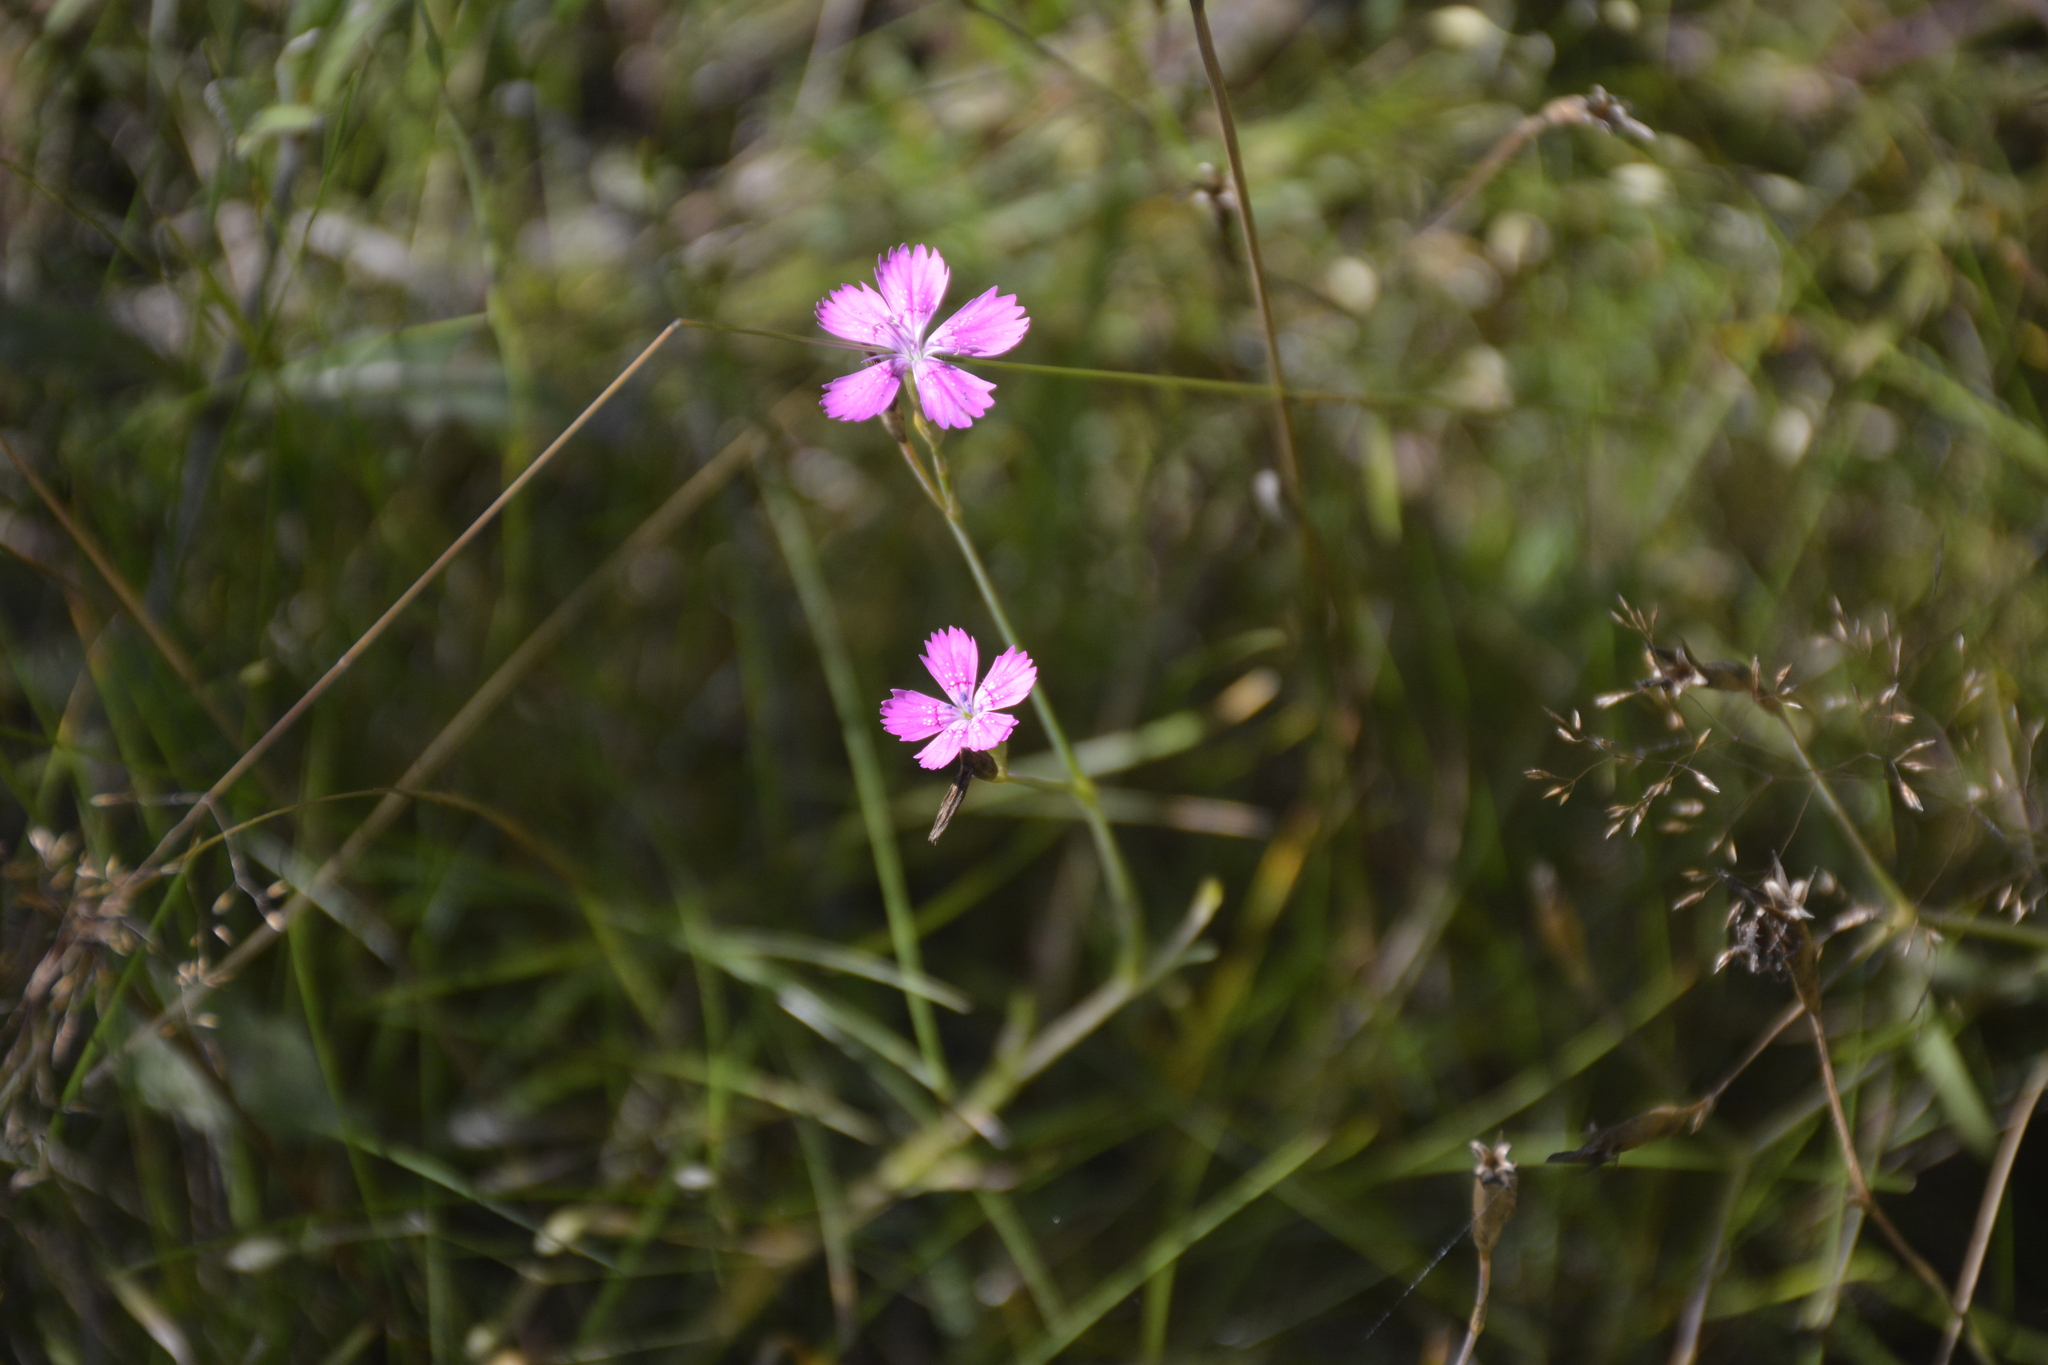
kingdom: Plantae
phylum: Tracheophyta
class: Magnoliopsida
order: Caryophyllales
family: Caryophyllaceae
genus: Dianthus
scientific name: Dianthus deltoides
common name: Maiden pink
